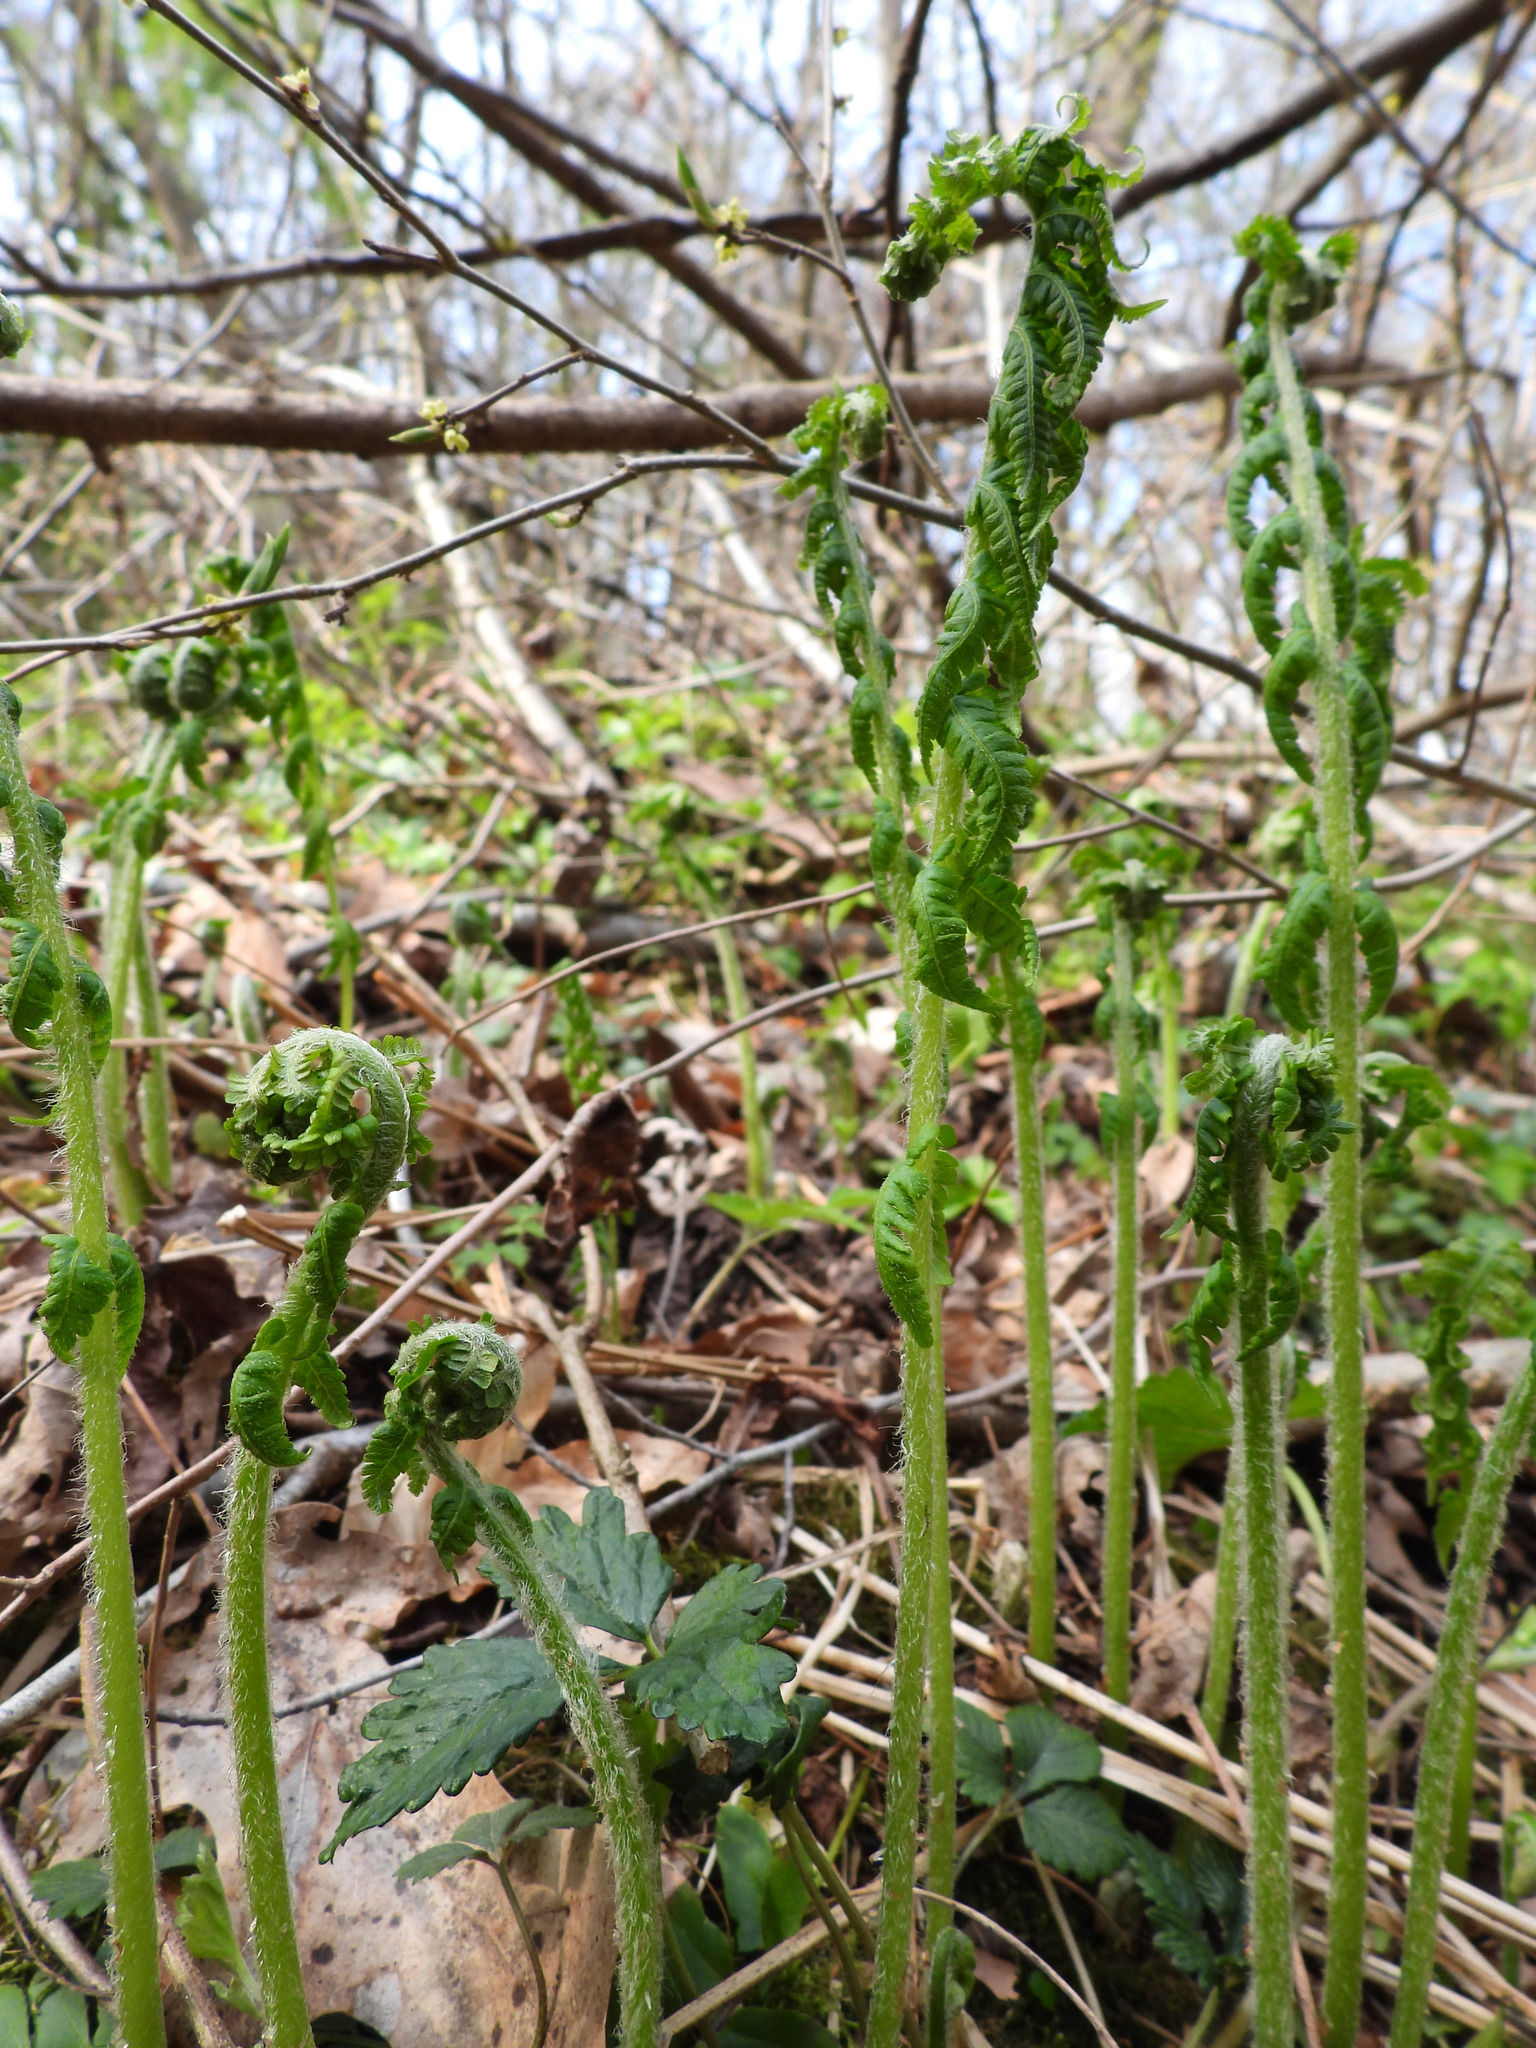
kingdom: Plantae
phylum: Tracheophyta
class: Polypodiopsida
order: Polypodiales
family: Athyriaceae
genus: Deparia
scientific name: Deparia acrostichoides
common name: Silver false spleenwort
